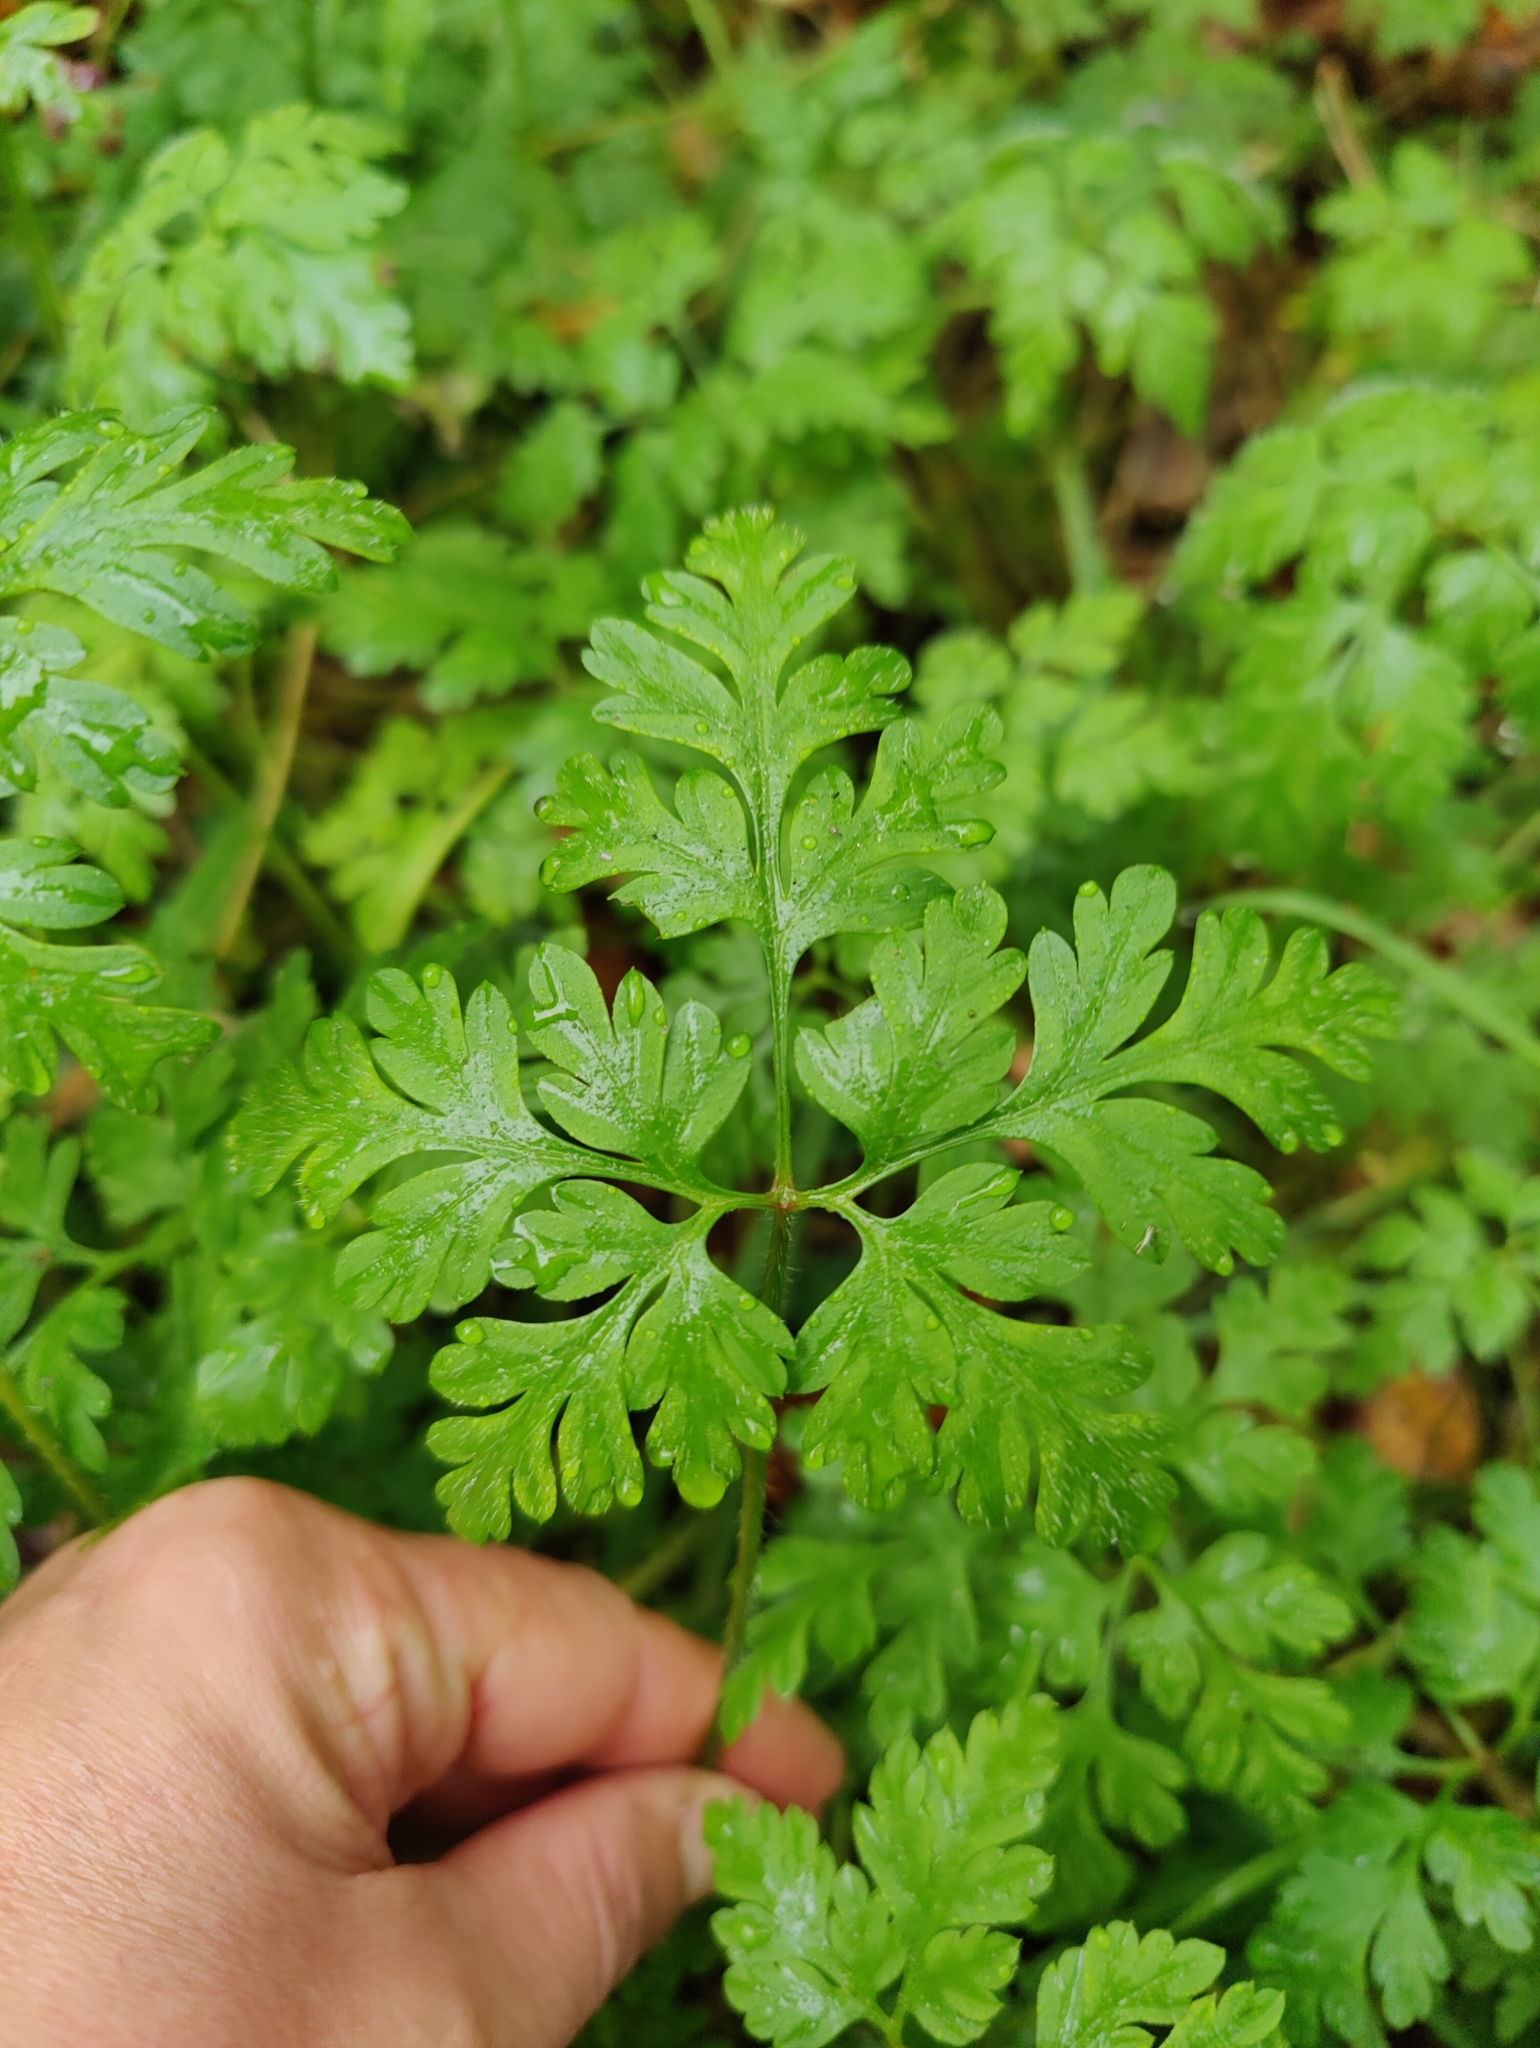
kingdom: Plantae
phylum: Tracheophyta
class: Magnoliopsida
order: Geraniales
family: Geraniaceae
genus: Geranium
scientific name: Geranium robertianum
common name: Herb-robert
